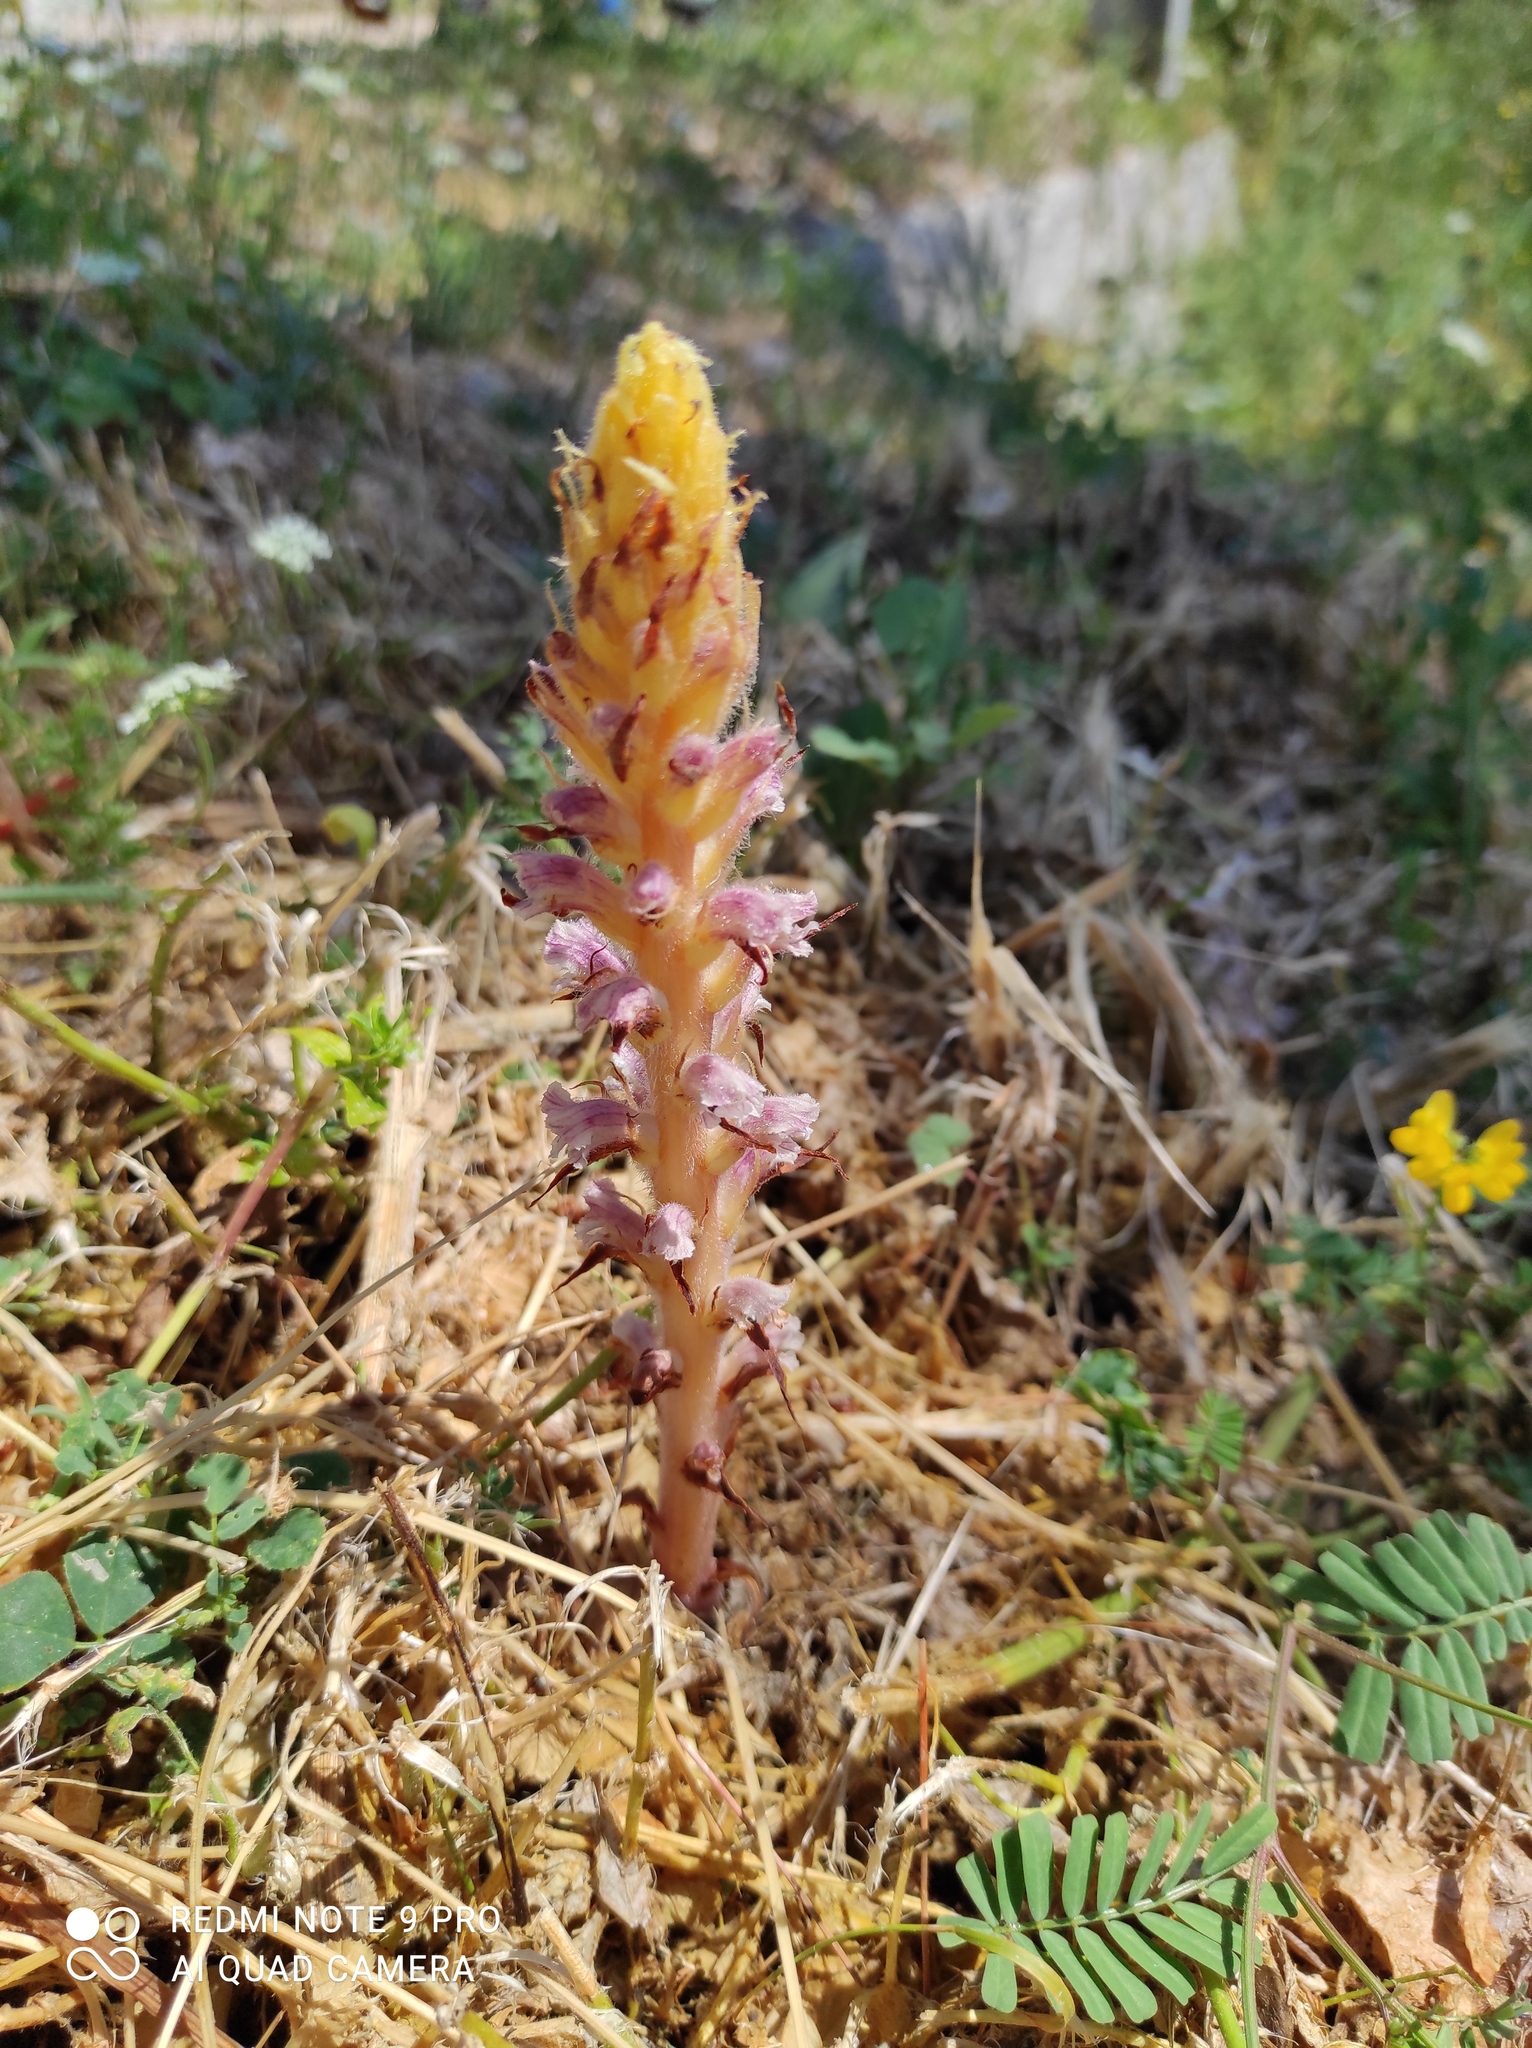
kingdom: Plantae
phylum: Tracheophyta
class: Magnoliopsida
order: Lamiales
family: Orobanchaceae
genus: Orobanche
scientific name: Orobanche pubescens
